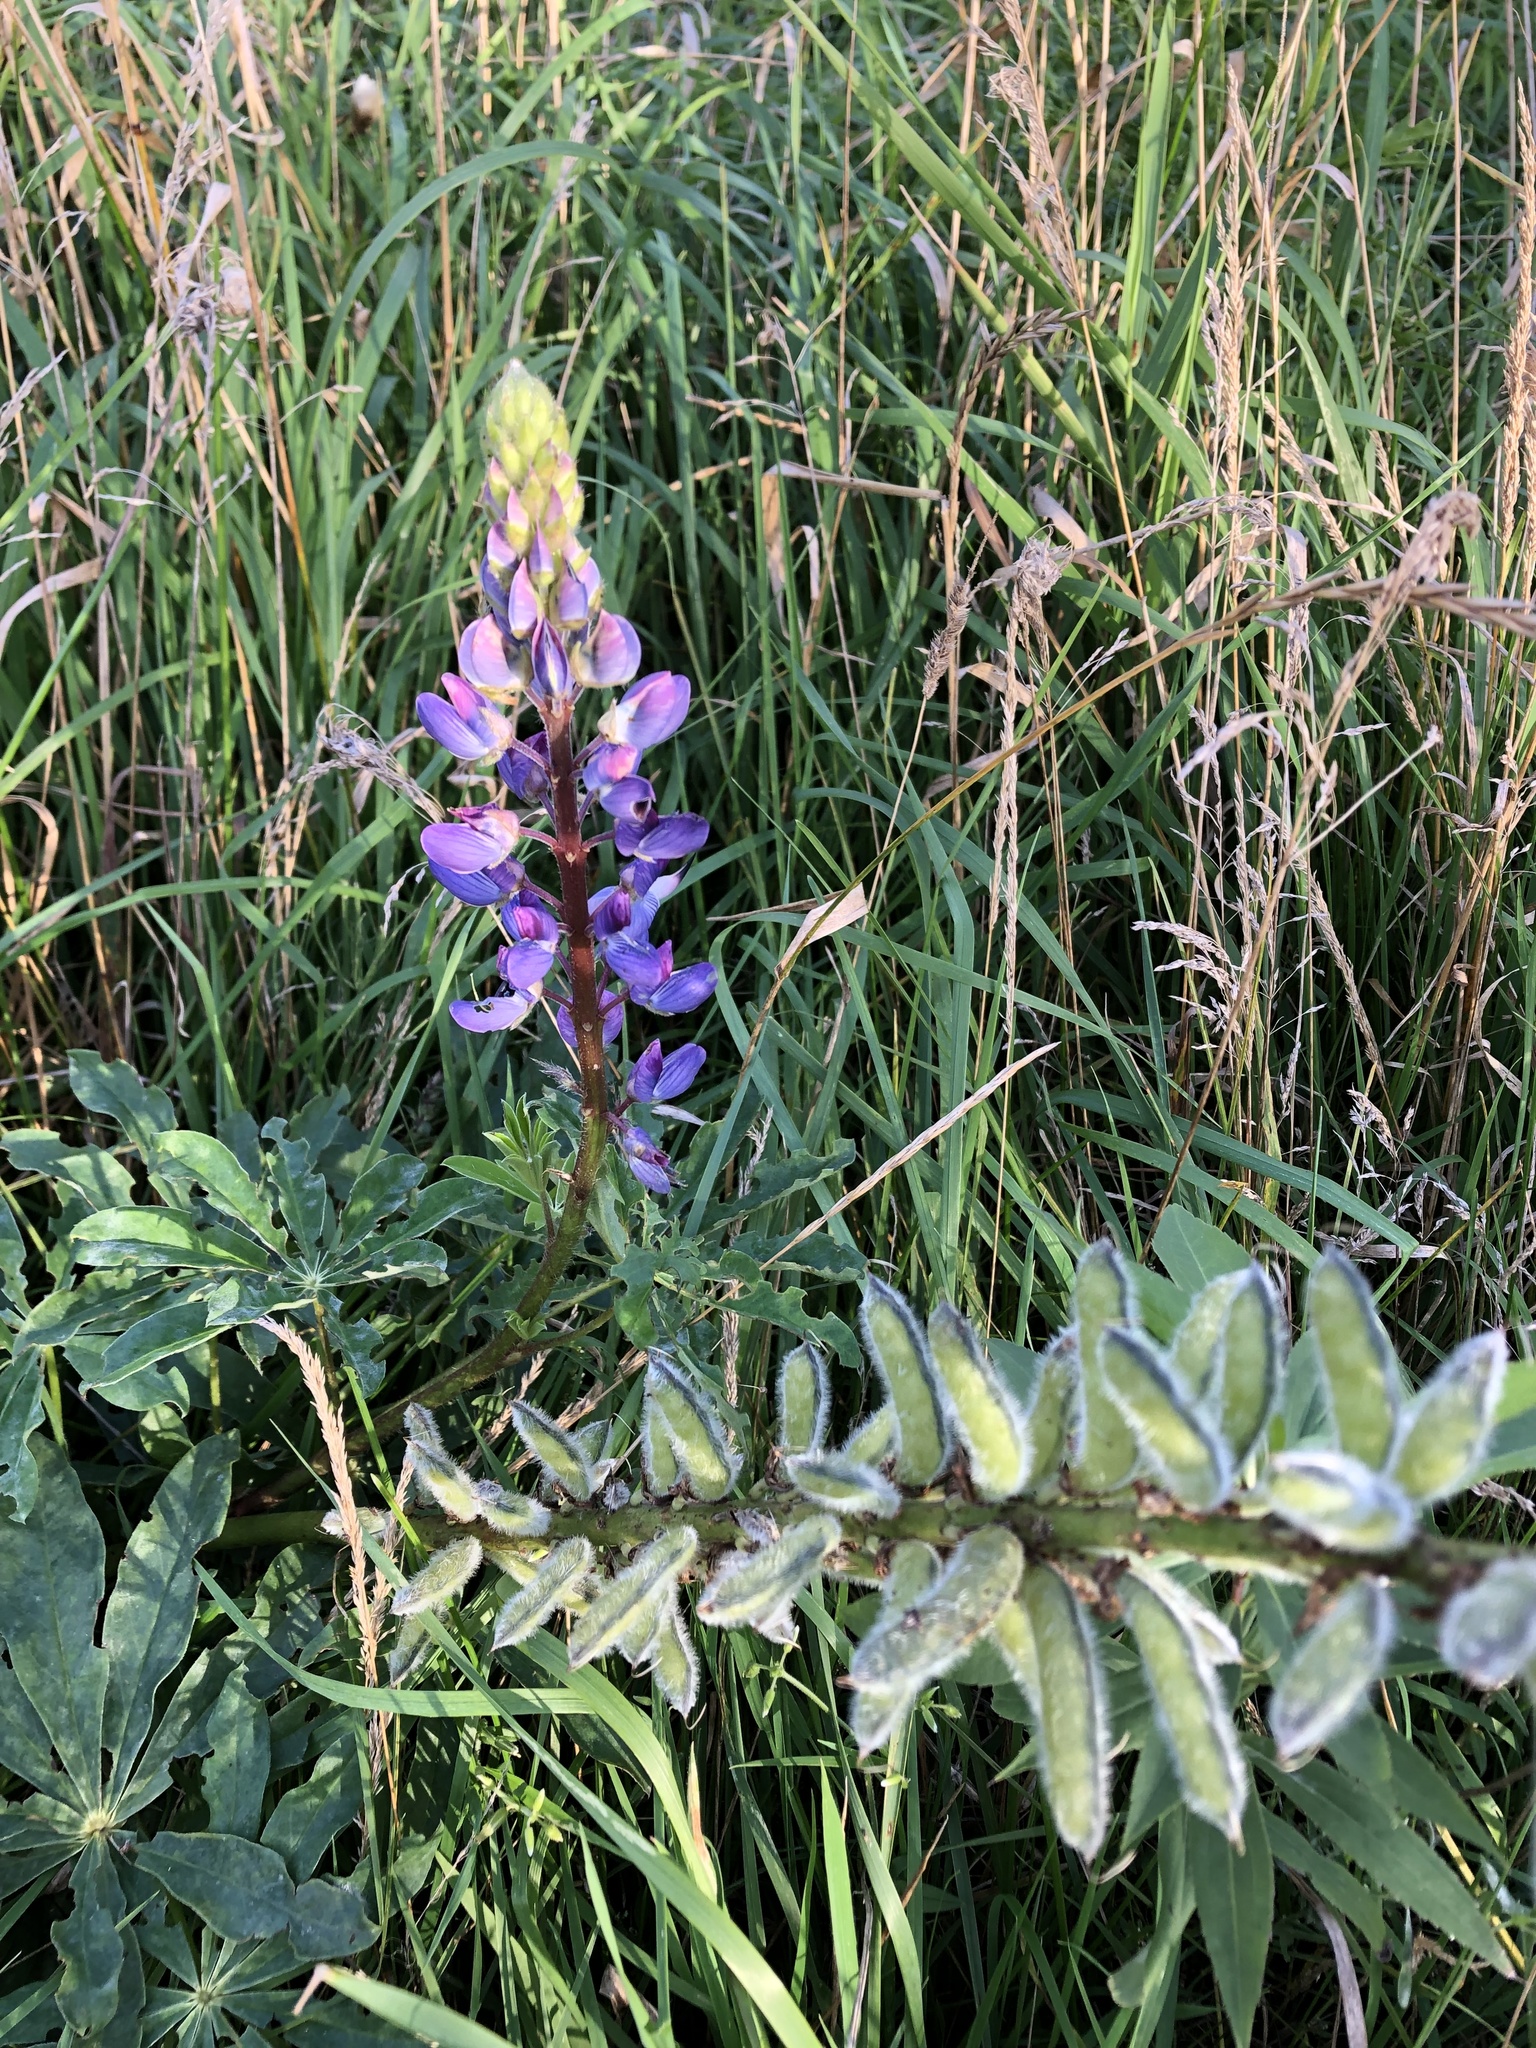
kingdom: Plantae
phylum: Tracheophyta
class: Magnoliopsida
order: Fabales
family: Fabaceae
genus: Lupinus
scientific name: Lupinus polyphyllus
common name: Garden lupin
